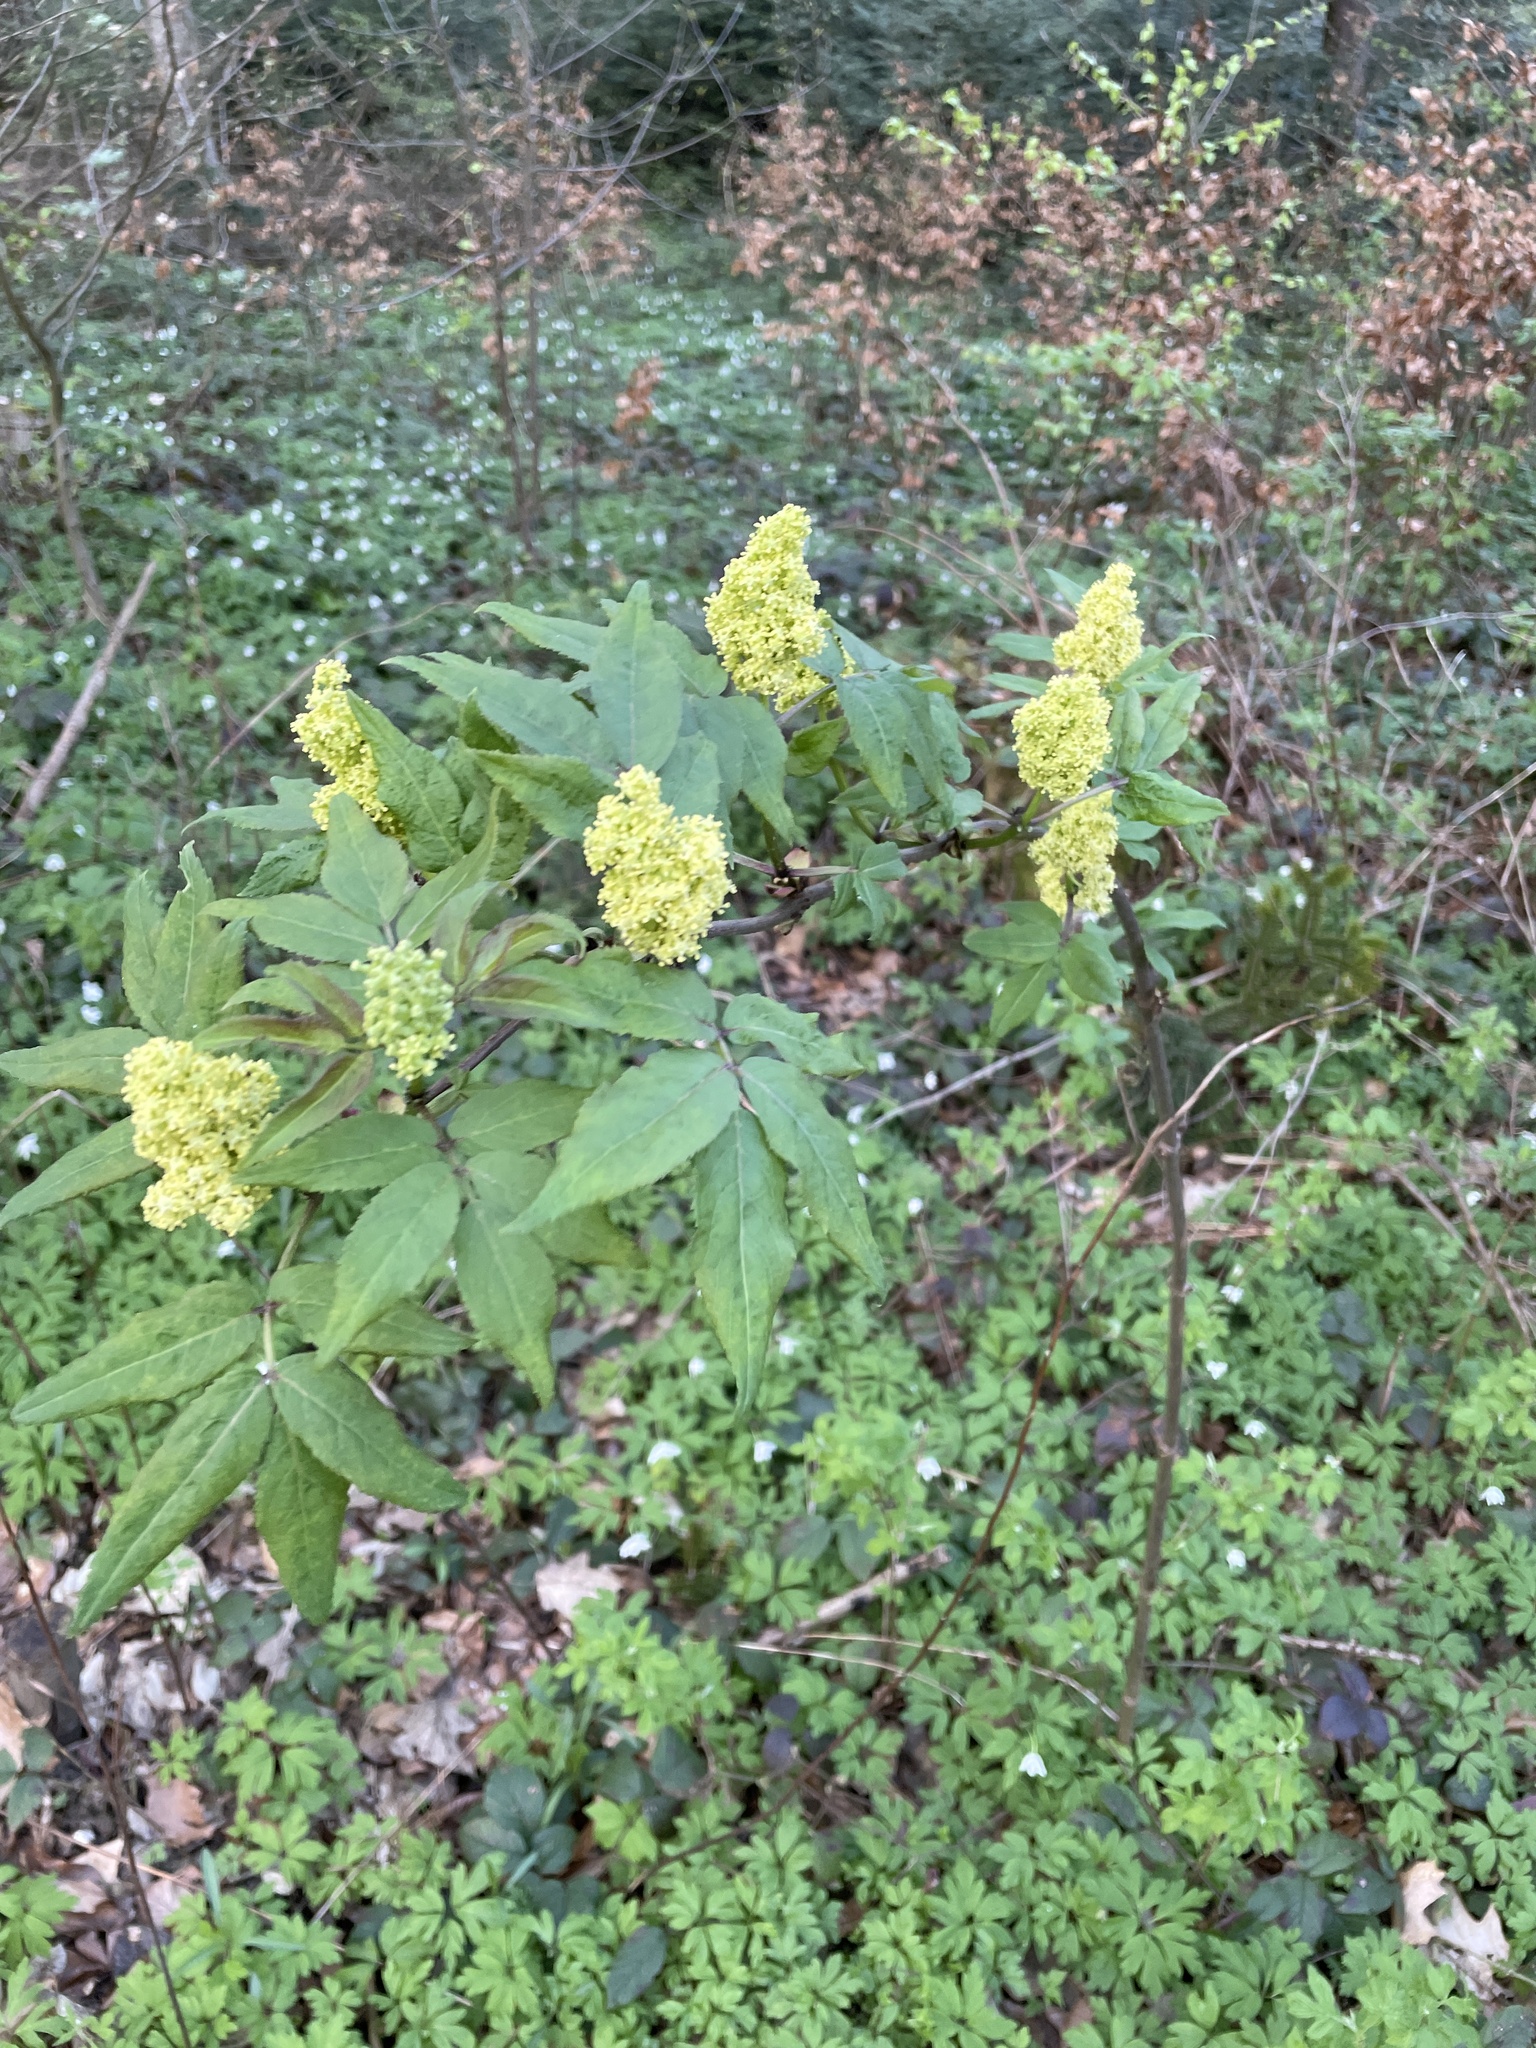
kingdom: Plantae
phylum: Tracheophyta
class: Magnoliopsida
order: Dipsacales
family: Viburnaceae
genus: Sambucus
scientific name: Sambucus racemosa
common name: Red-berried elder
